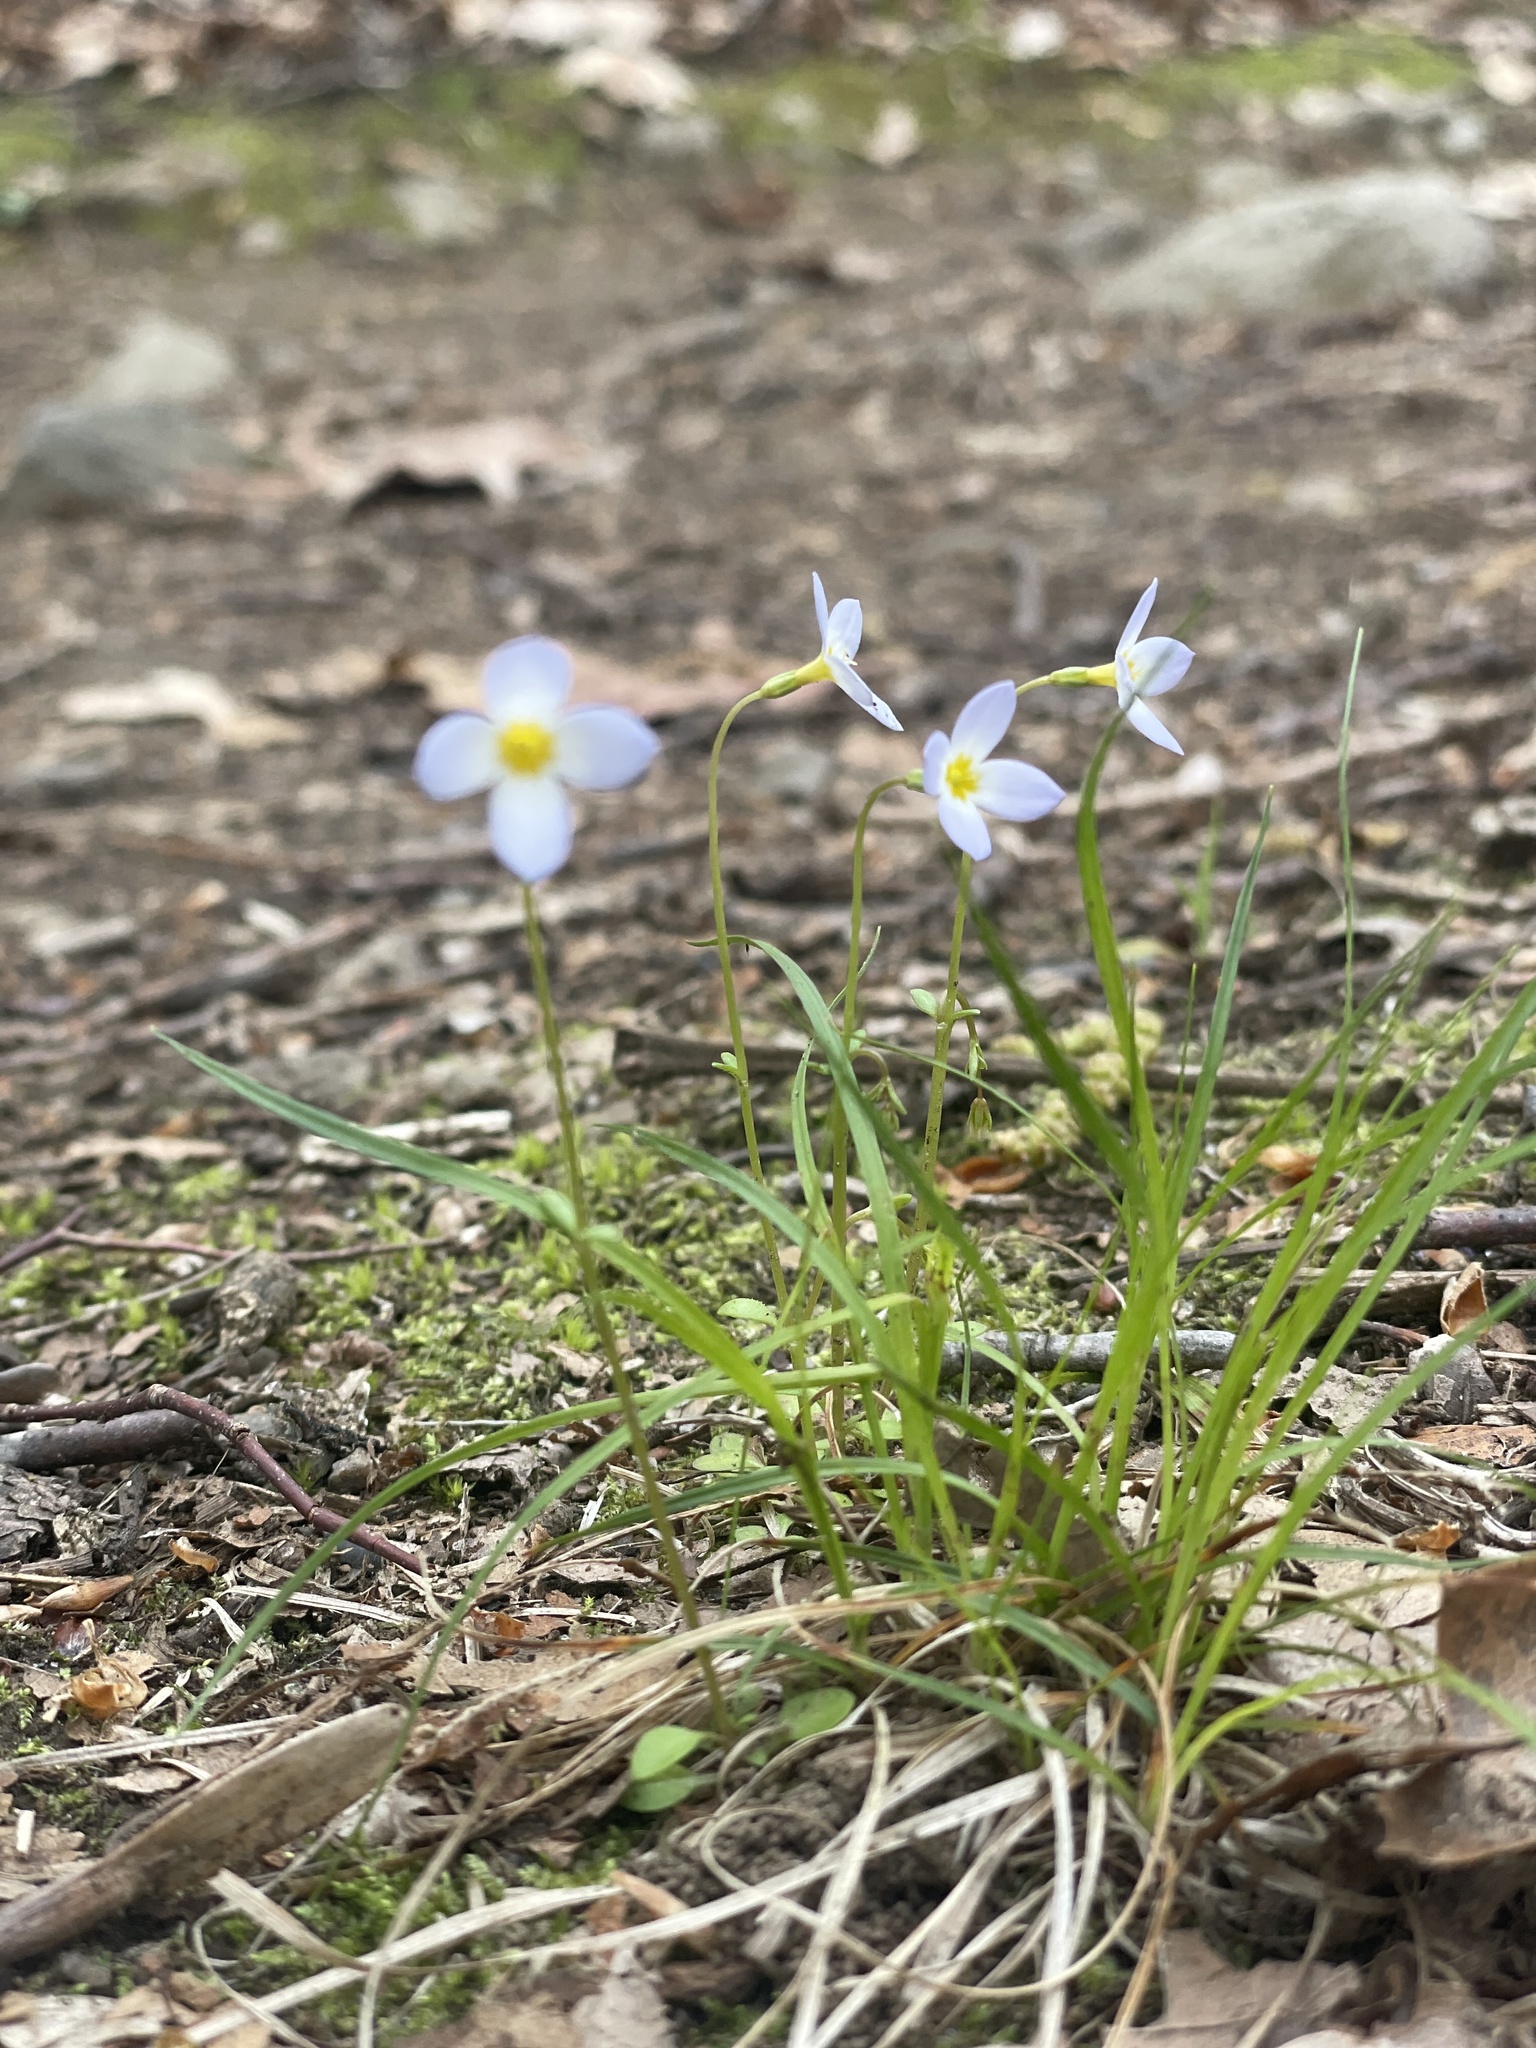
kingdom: Plantae
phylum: Tracheophyta
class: Magnoliopsida
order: Gentianales
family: Rubiaceae
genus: Houstonia
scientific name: Houstonia caerulea
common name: Bluets
